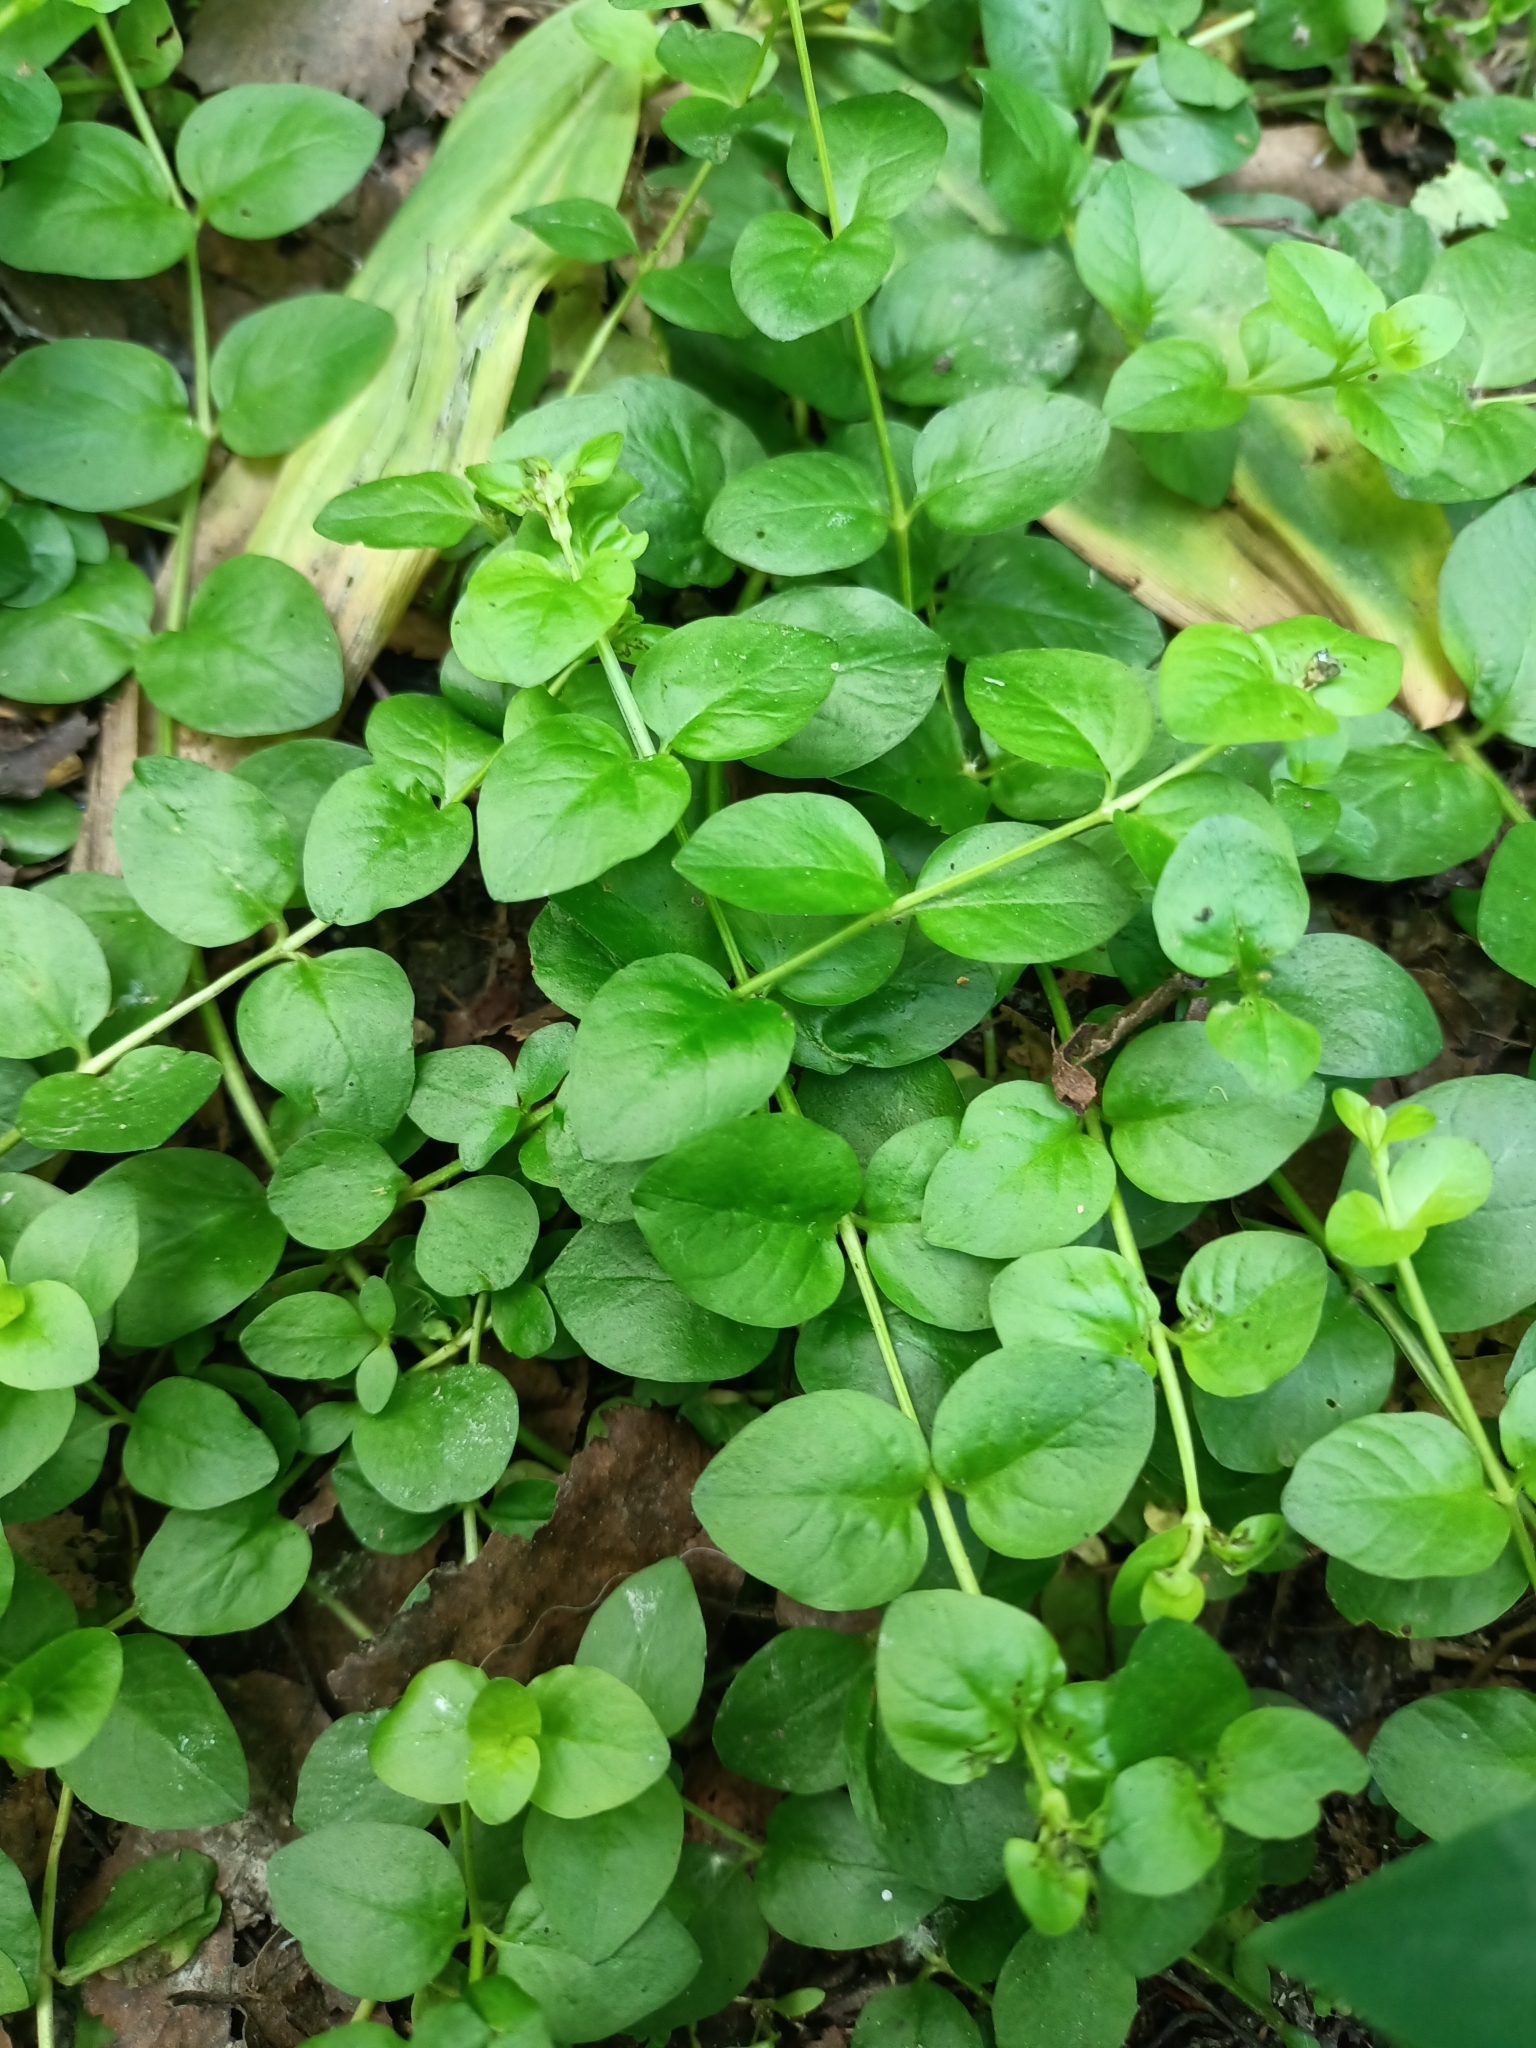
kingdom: Plantae
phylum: Tracheophyta
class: Magnoliopsida
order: Ericales
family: Primulaceae
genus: Lysimachia
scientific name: Lysimachia nummularia
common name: Moneywort
